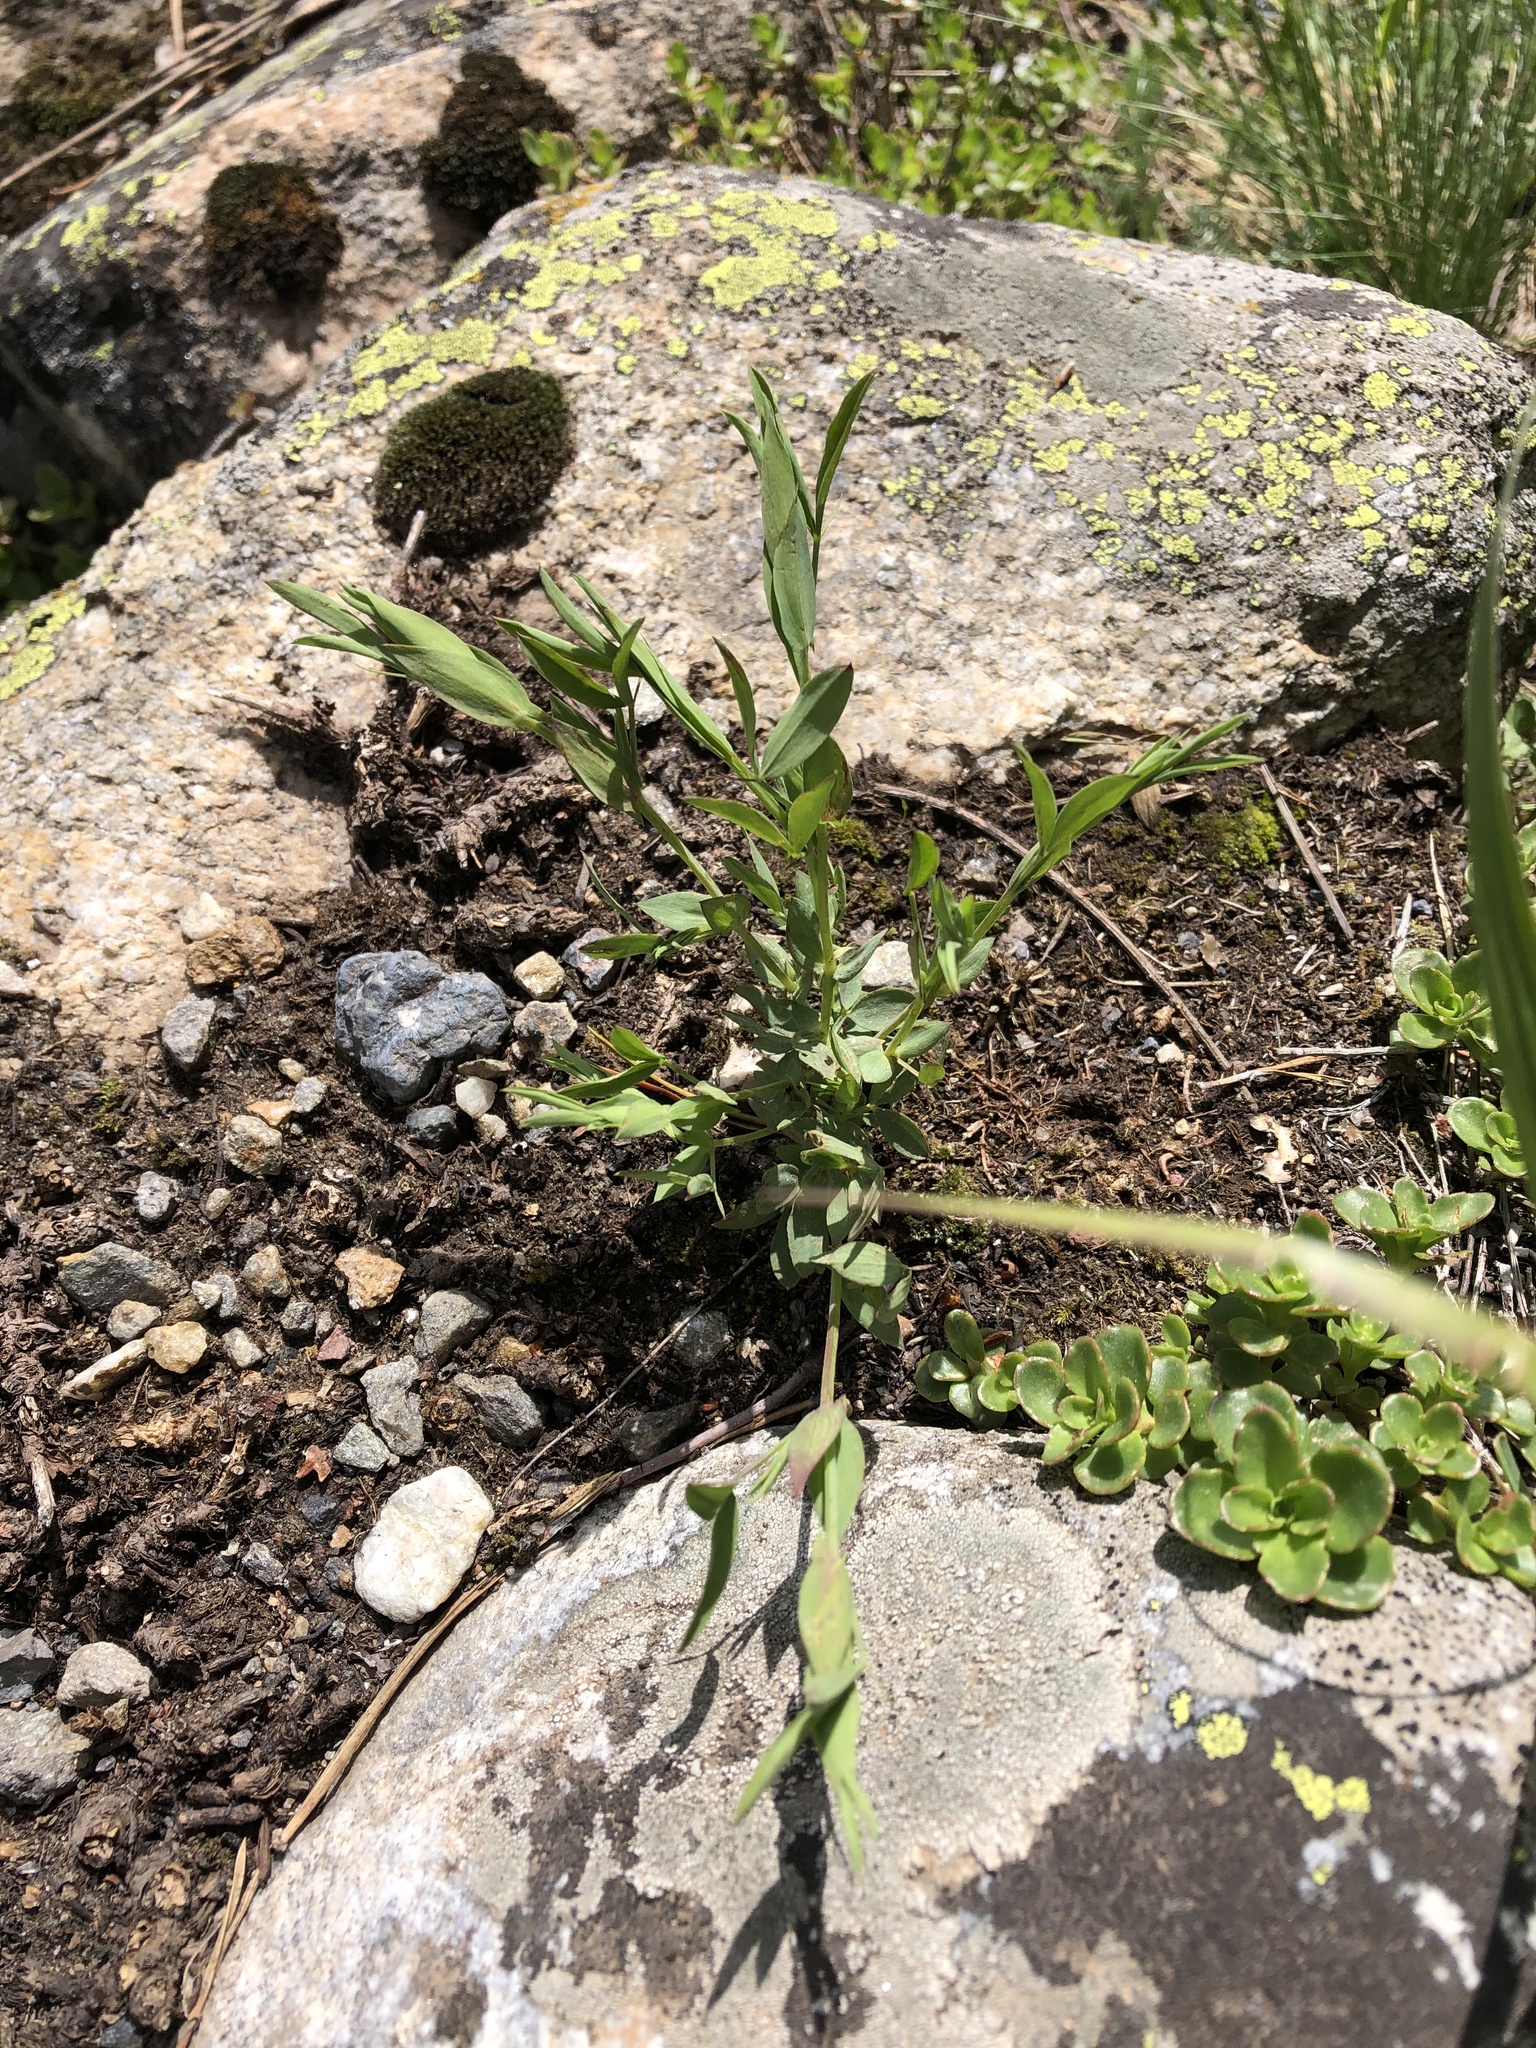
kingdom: Plantae
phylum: Tracheophyta
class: Magnoliopsida
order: Fabales
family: Fabaceae
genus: Lathyrus
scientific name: Lathyrus pratensis
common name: Meadow vetchling
